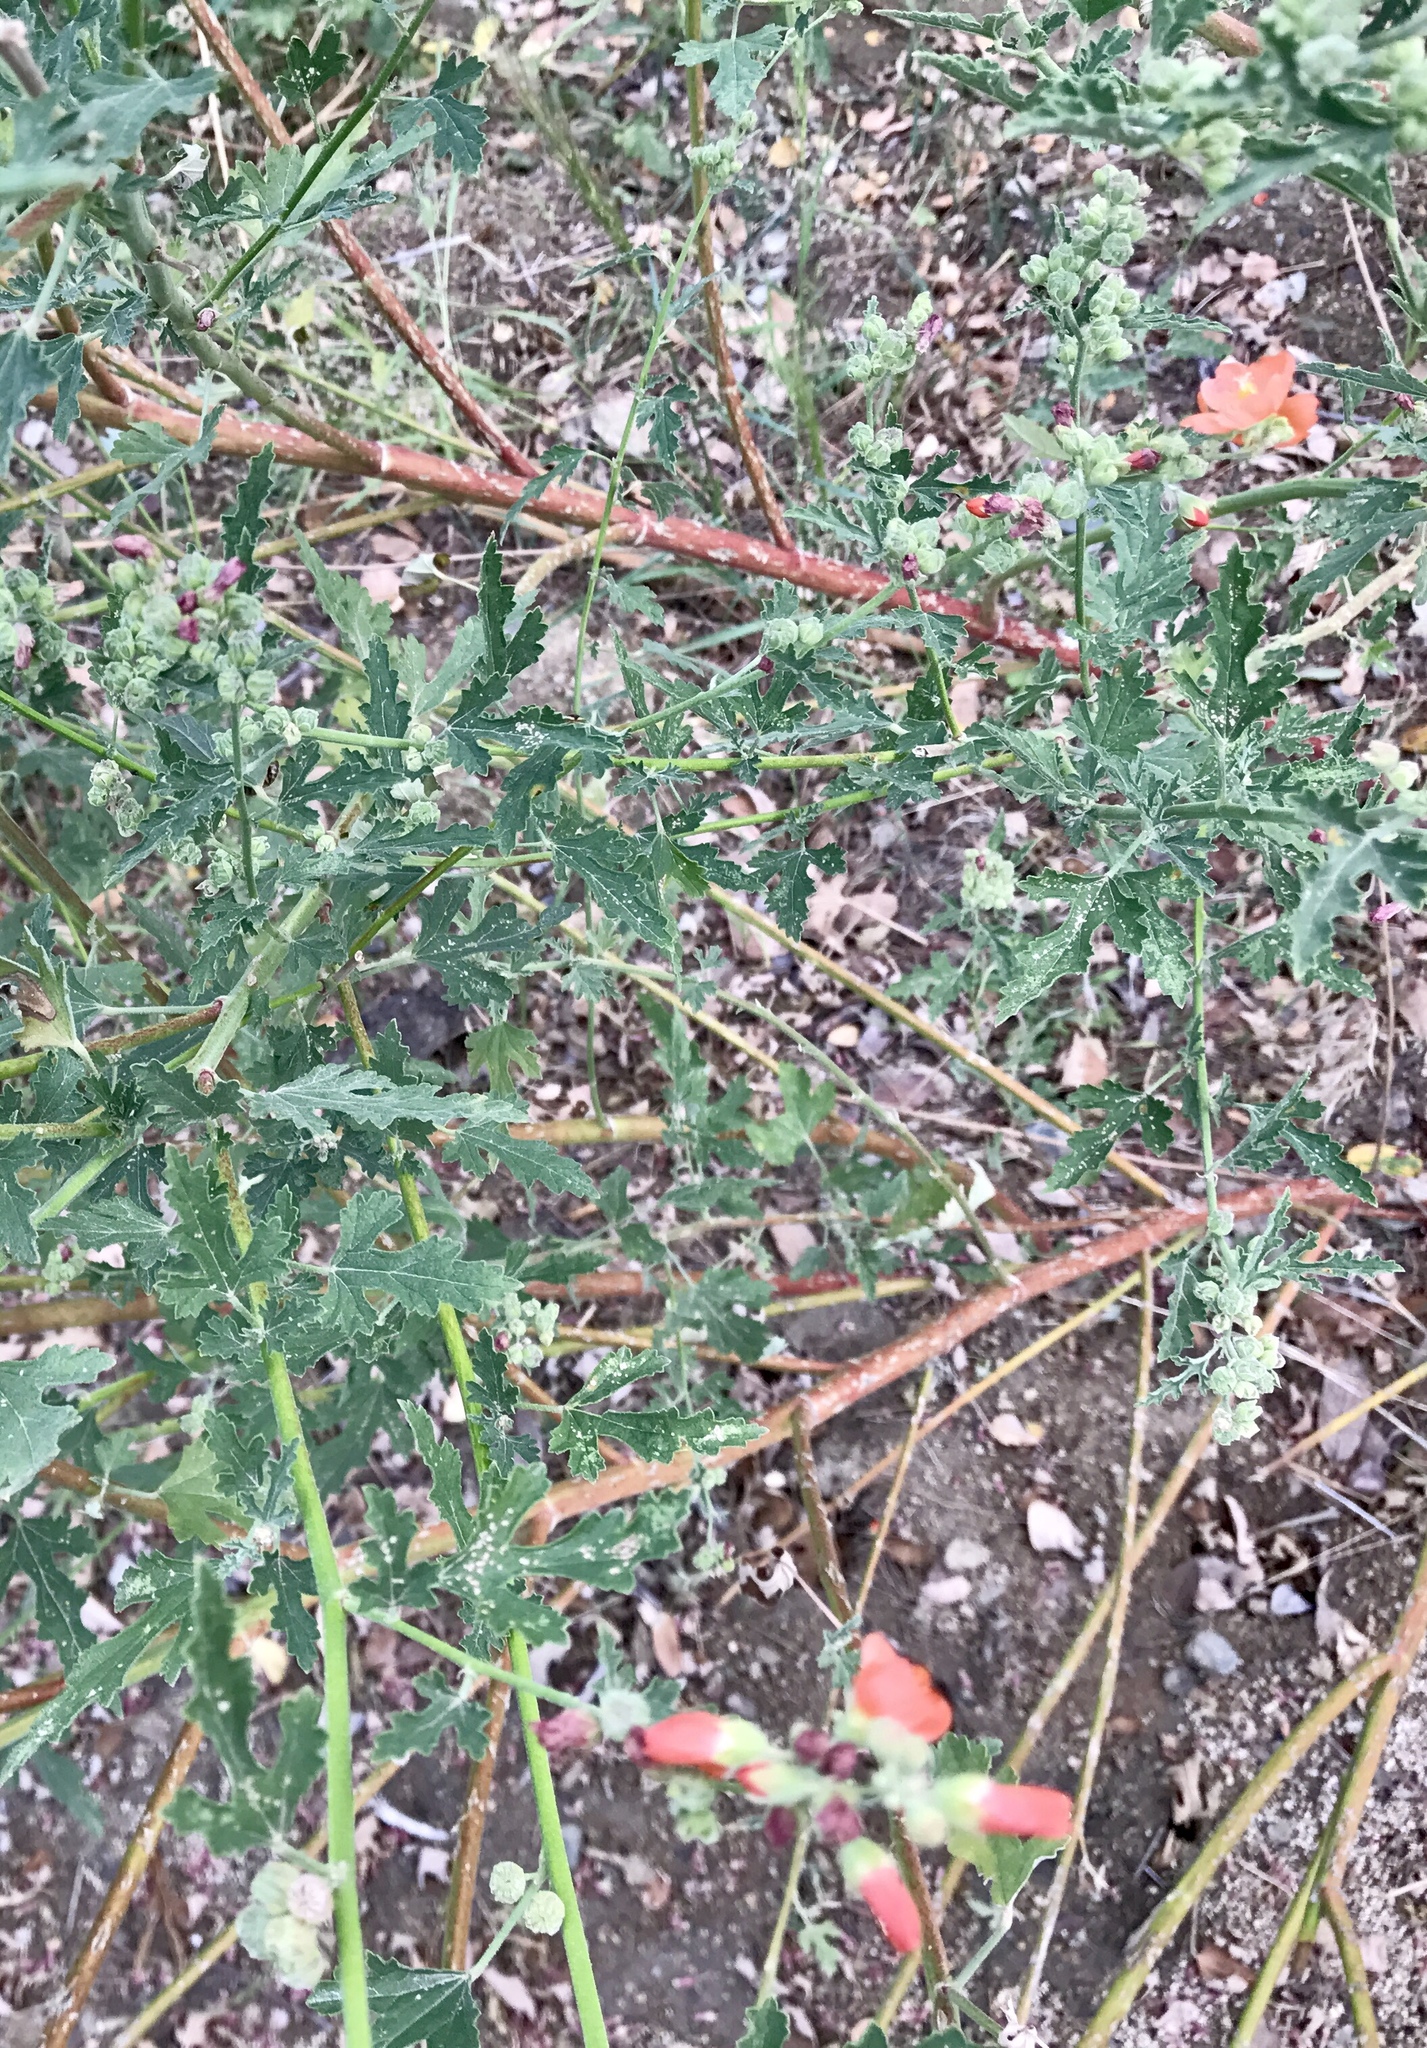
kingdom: Plantae
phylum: Tracheophyta
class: Magnoliopsida
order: Malvales
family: Malvaceae
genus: Sphaeralcea
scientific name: Sphaeralcea coccinea
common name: Moss-rose
